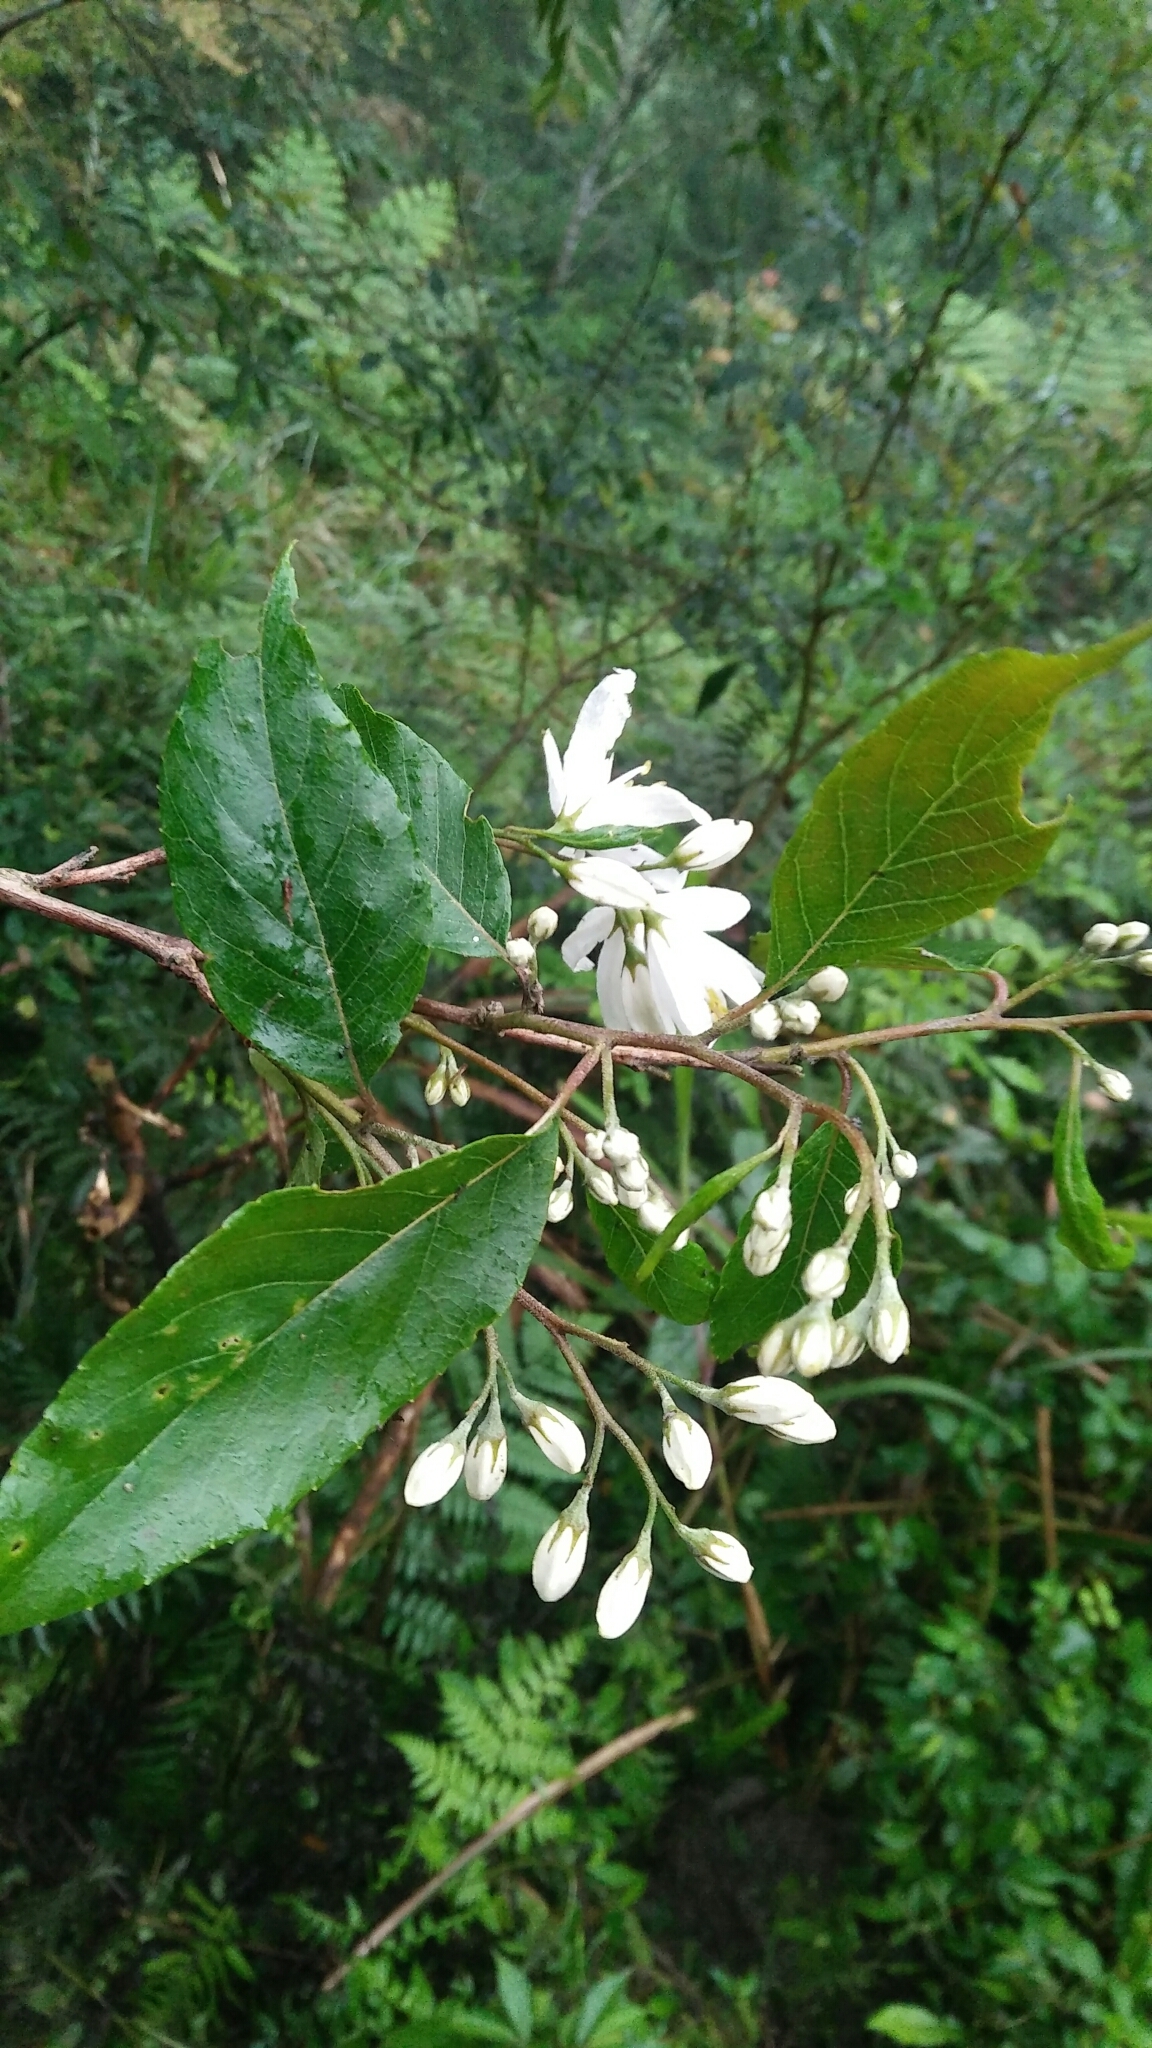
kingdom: Plantae
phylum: Tracheophyta
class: Magnoliopsida
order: Ericales
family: Styracaceae
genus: Alniphyllum
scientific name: Alniphyllum pterospermum
